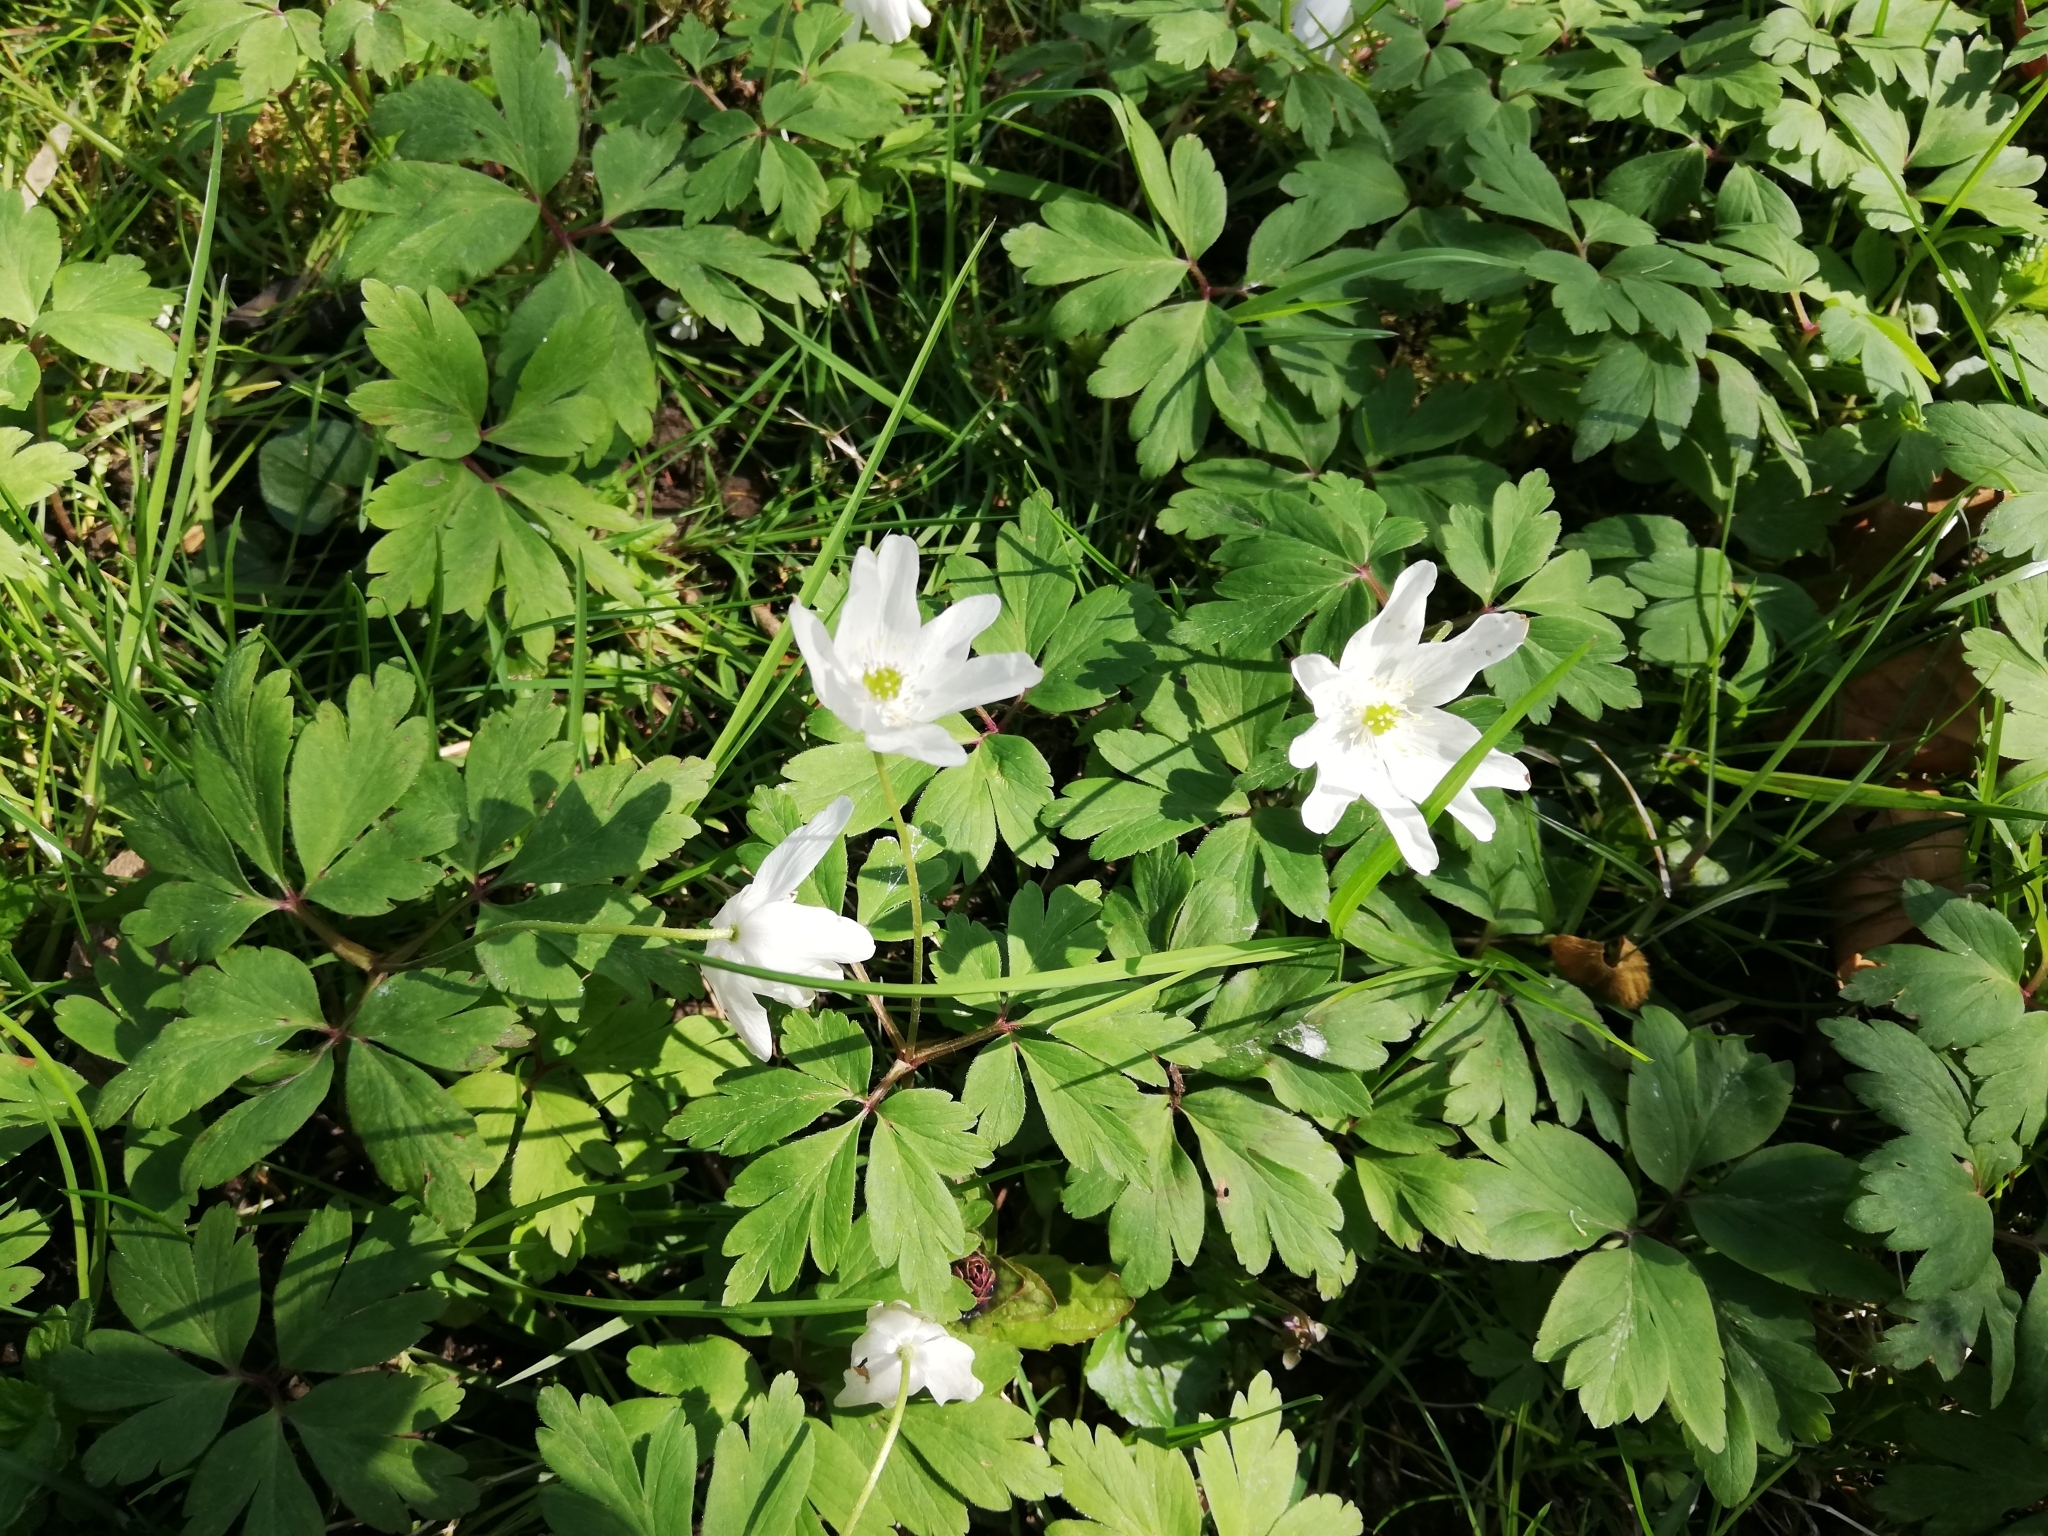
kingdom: Plantae
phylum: Tracheophyta
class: Magnoliopsida
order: Ranunculales
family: Ranunculaceae
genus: Anemone
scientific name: Anemone nemorosa
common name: Wood anemone
